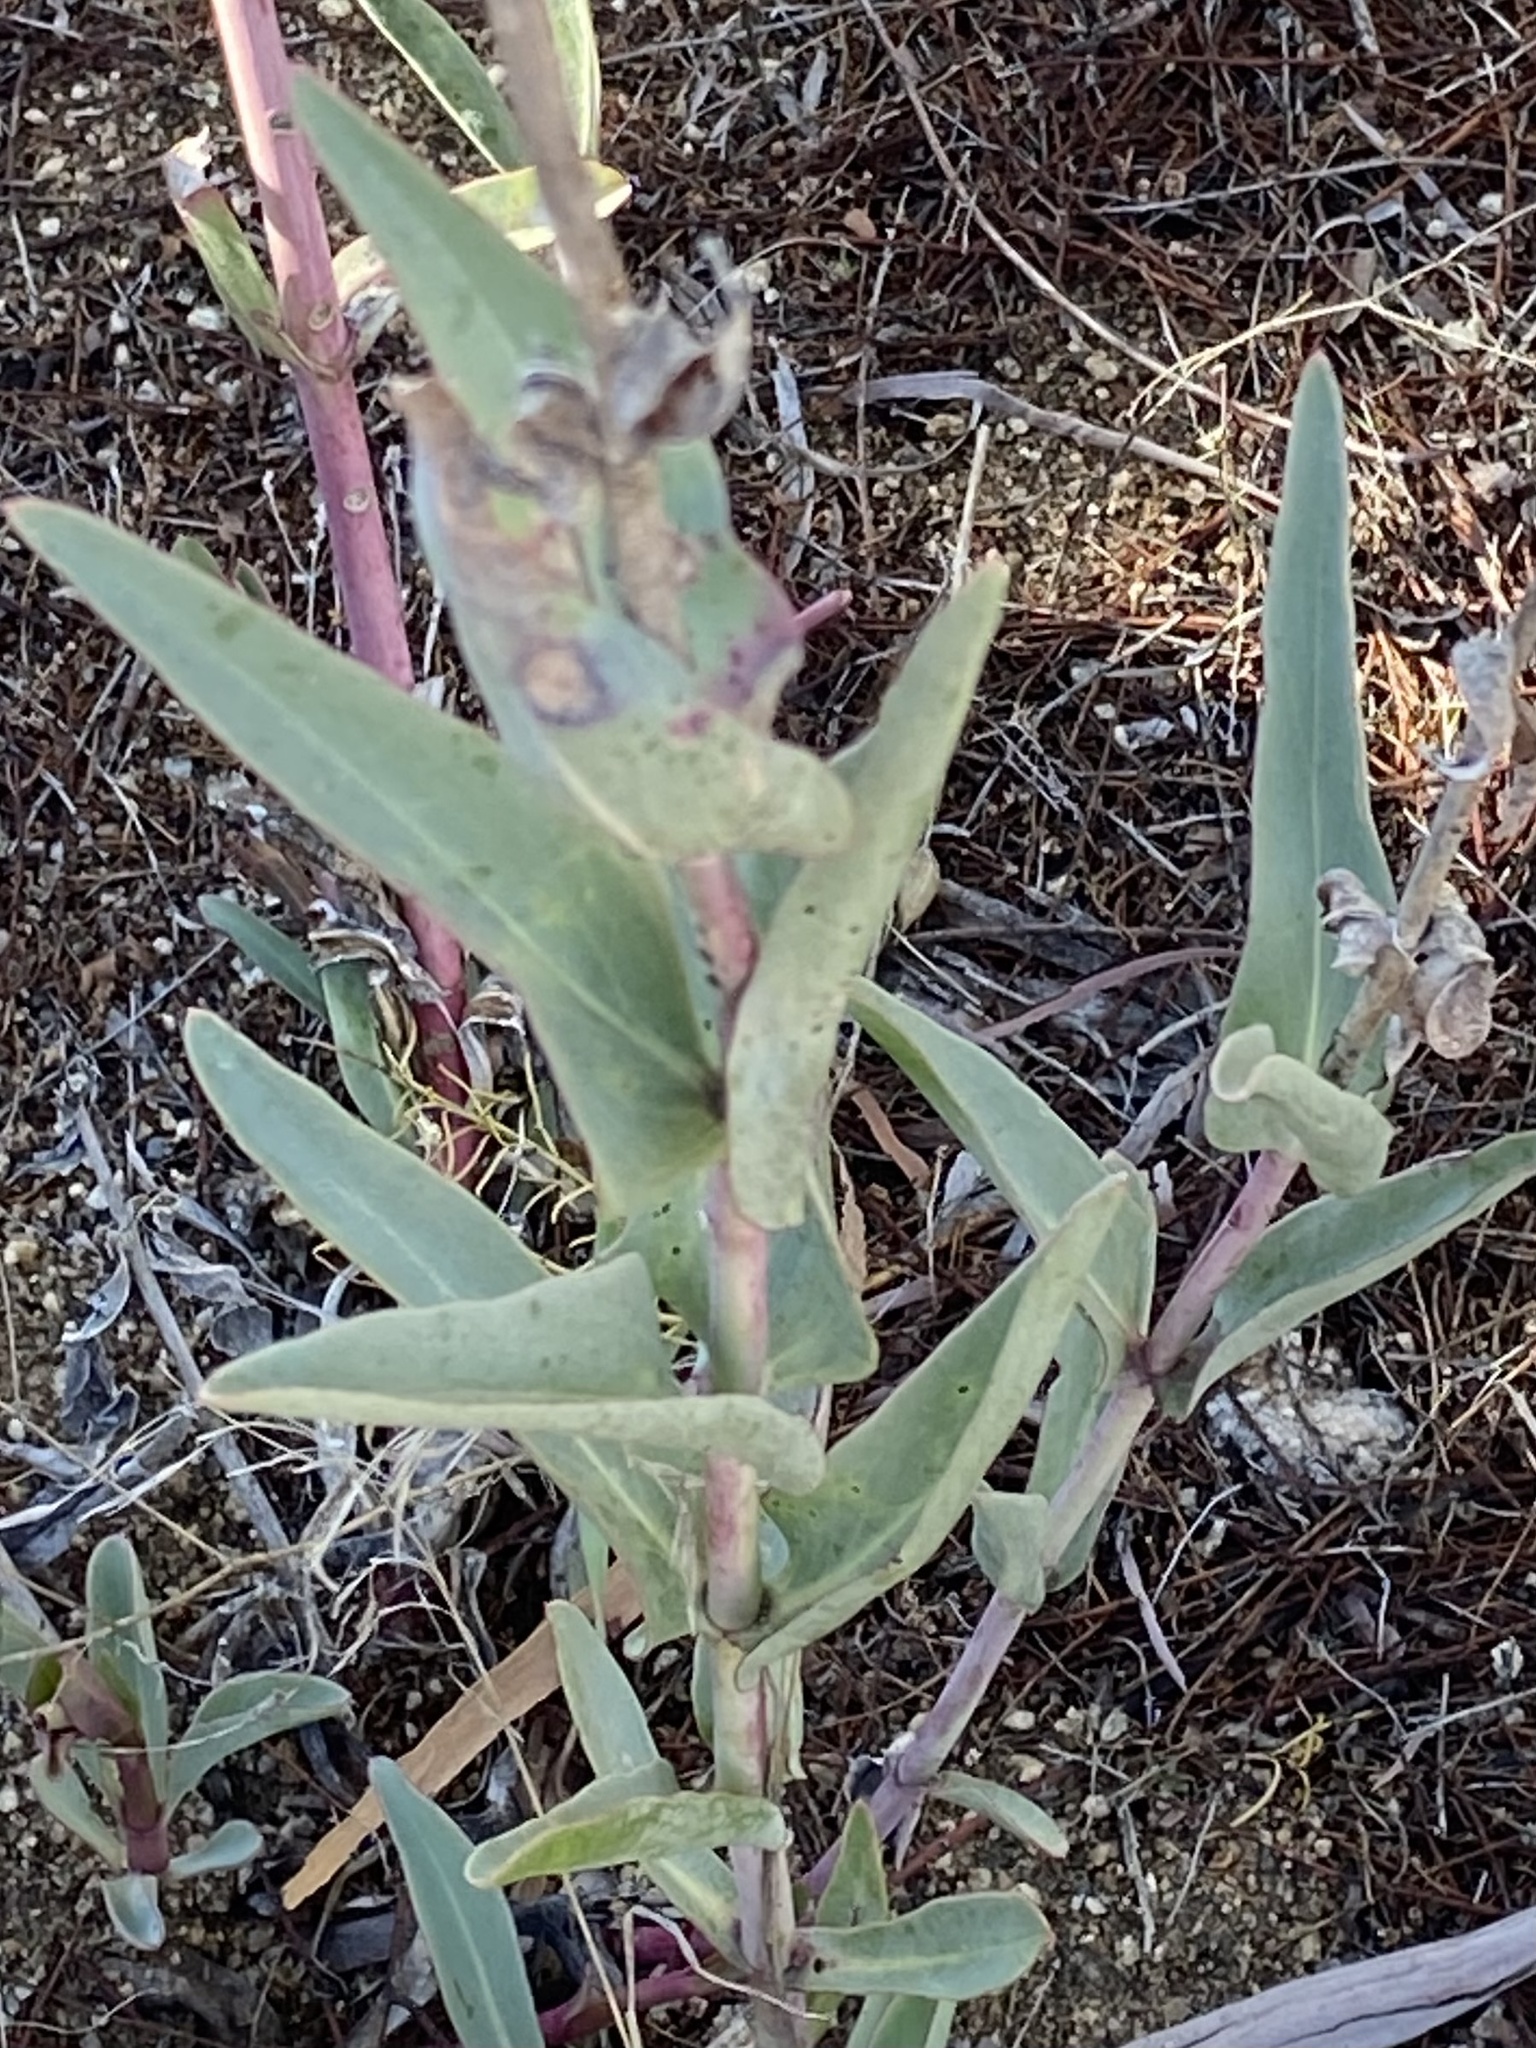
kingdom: Plantae
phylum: Tracheophyta
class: Magnoliopsida
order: Lamiales
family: Plantaginaceae
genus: Penstemon
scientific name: Penstemon centranthifolius
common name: Scarlet bugler
